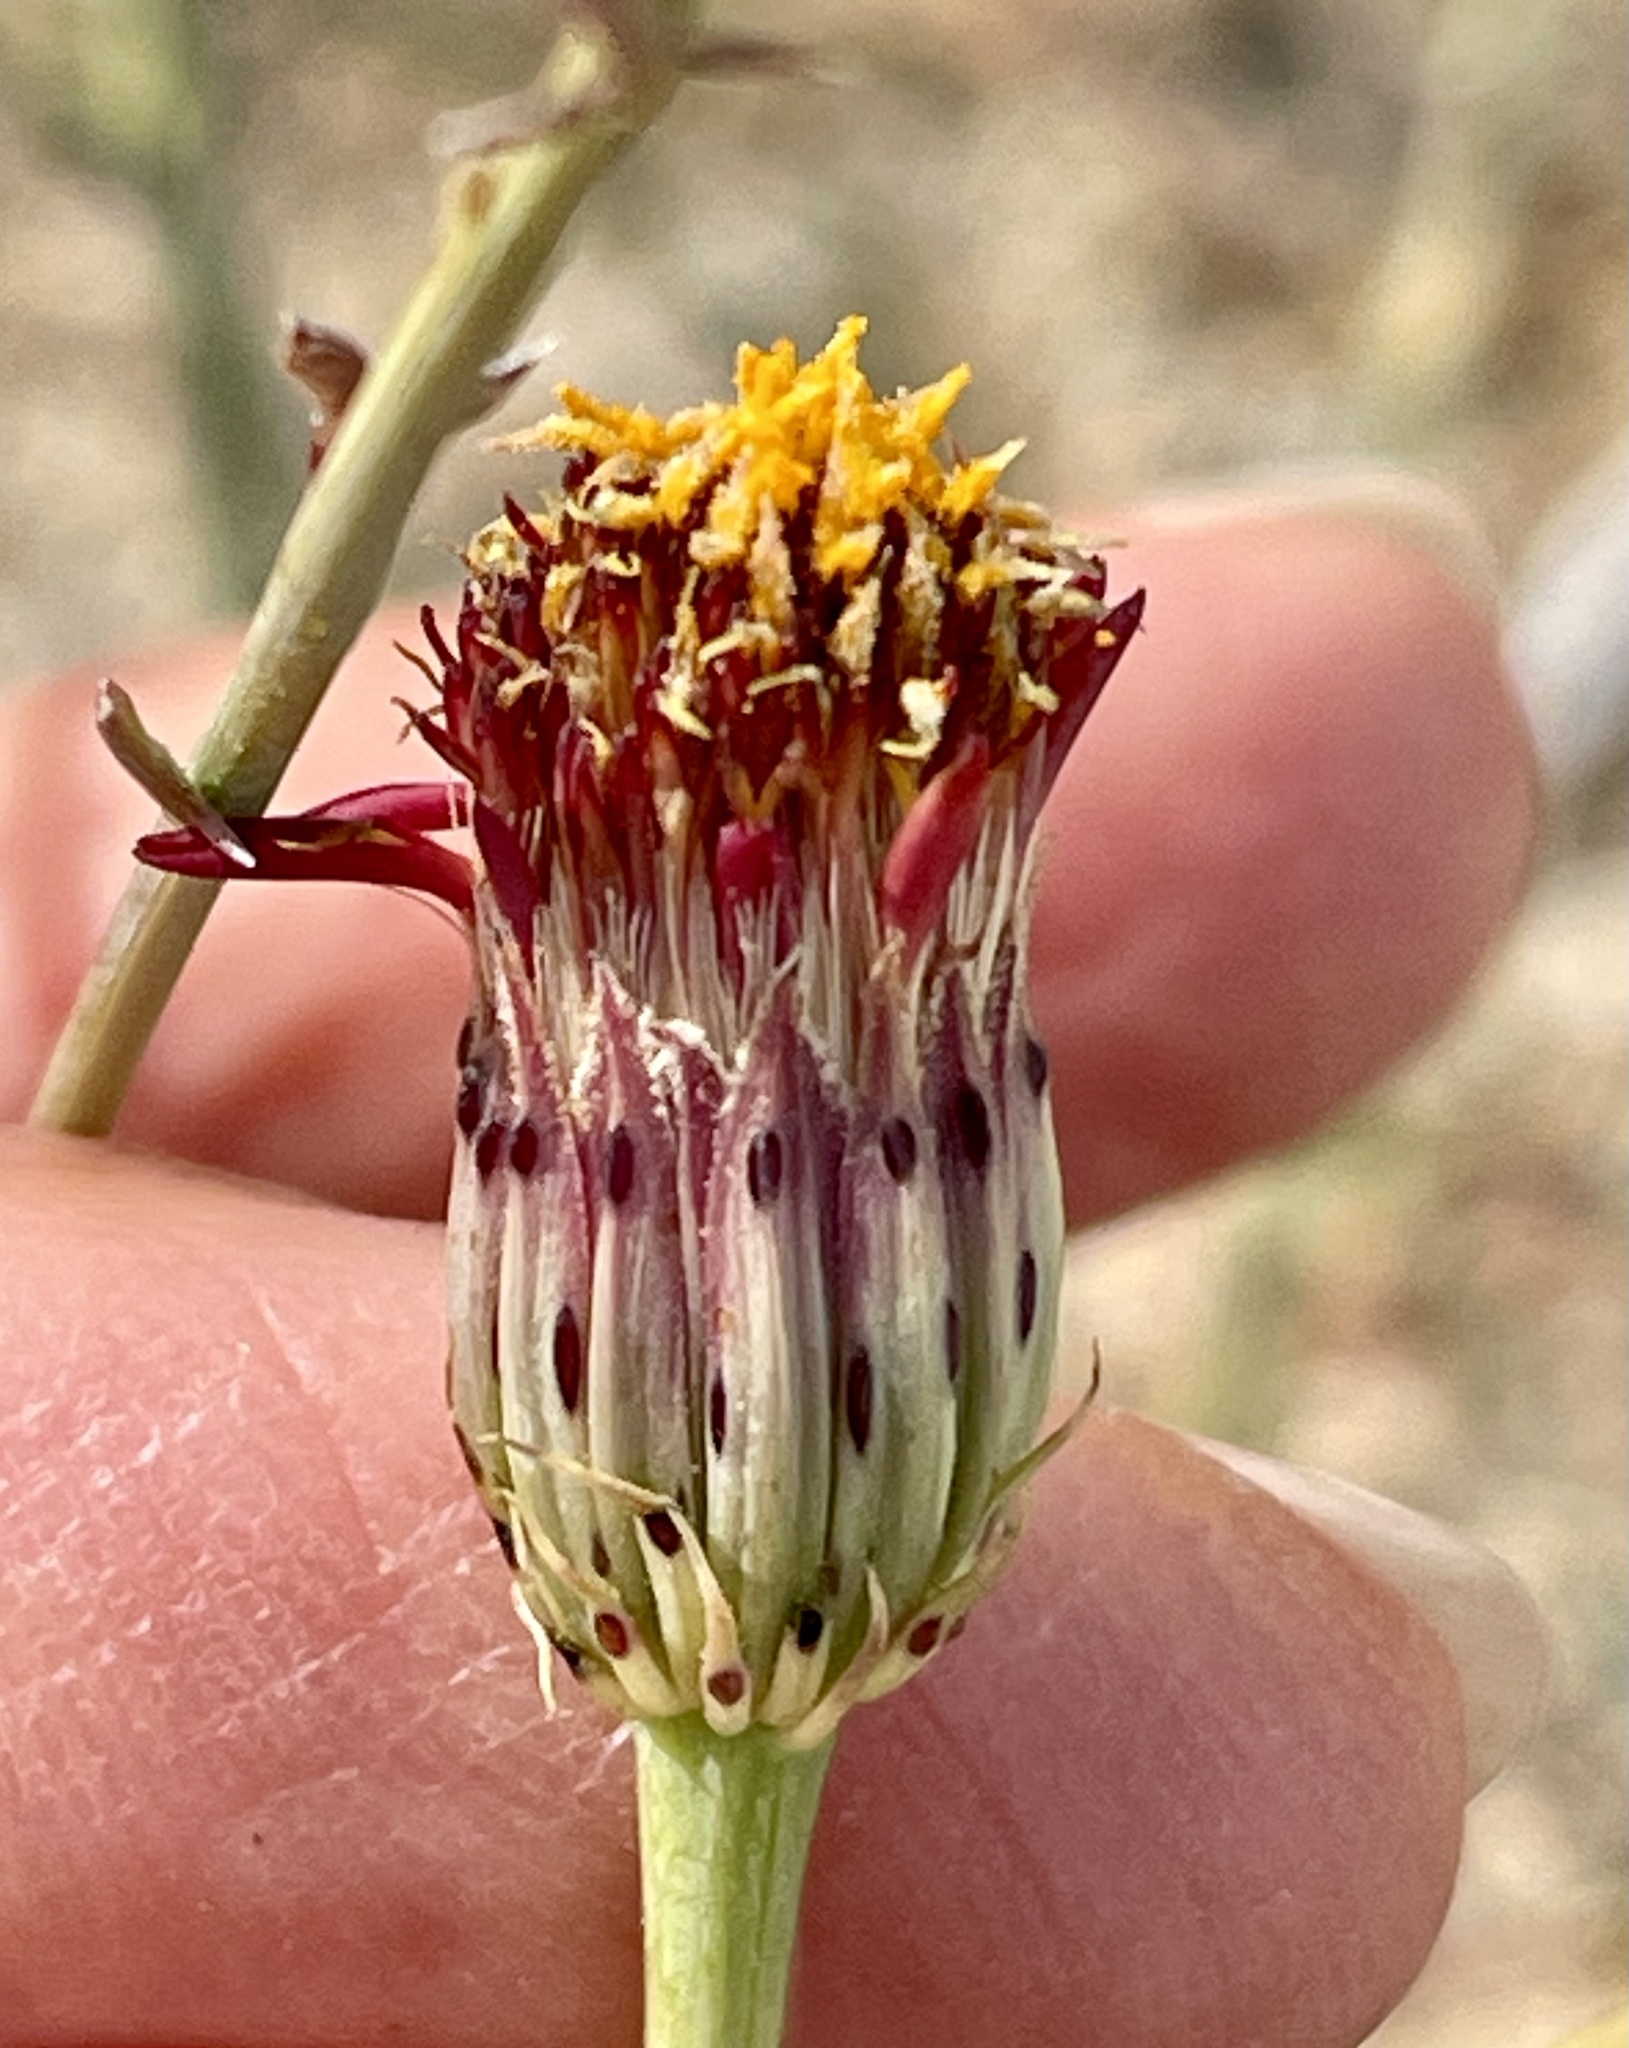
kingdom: Plantae
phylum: Tracheophyta
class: Magnoliopsida
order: Asterales
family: Asteraceae
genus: Adenophyllum
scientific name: Adenophyllum porophylloides
